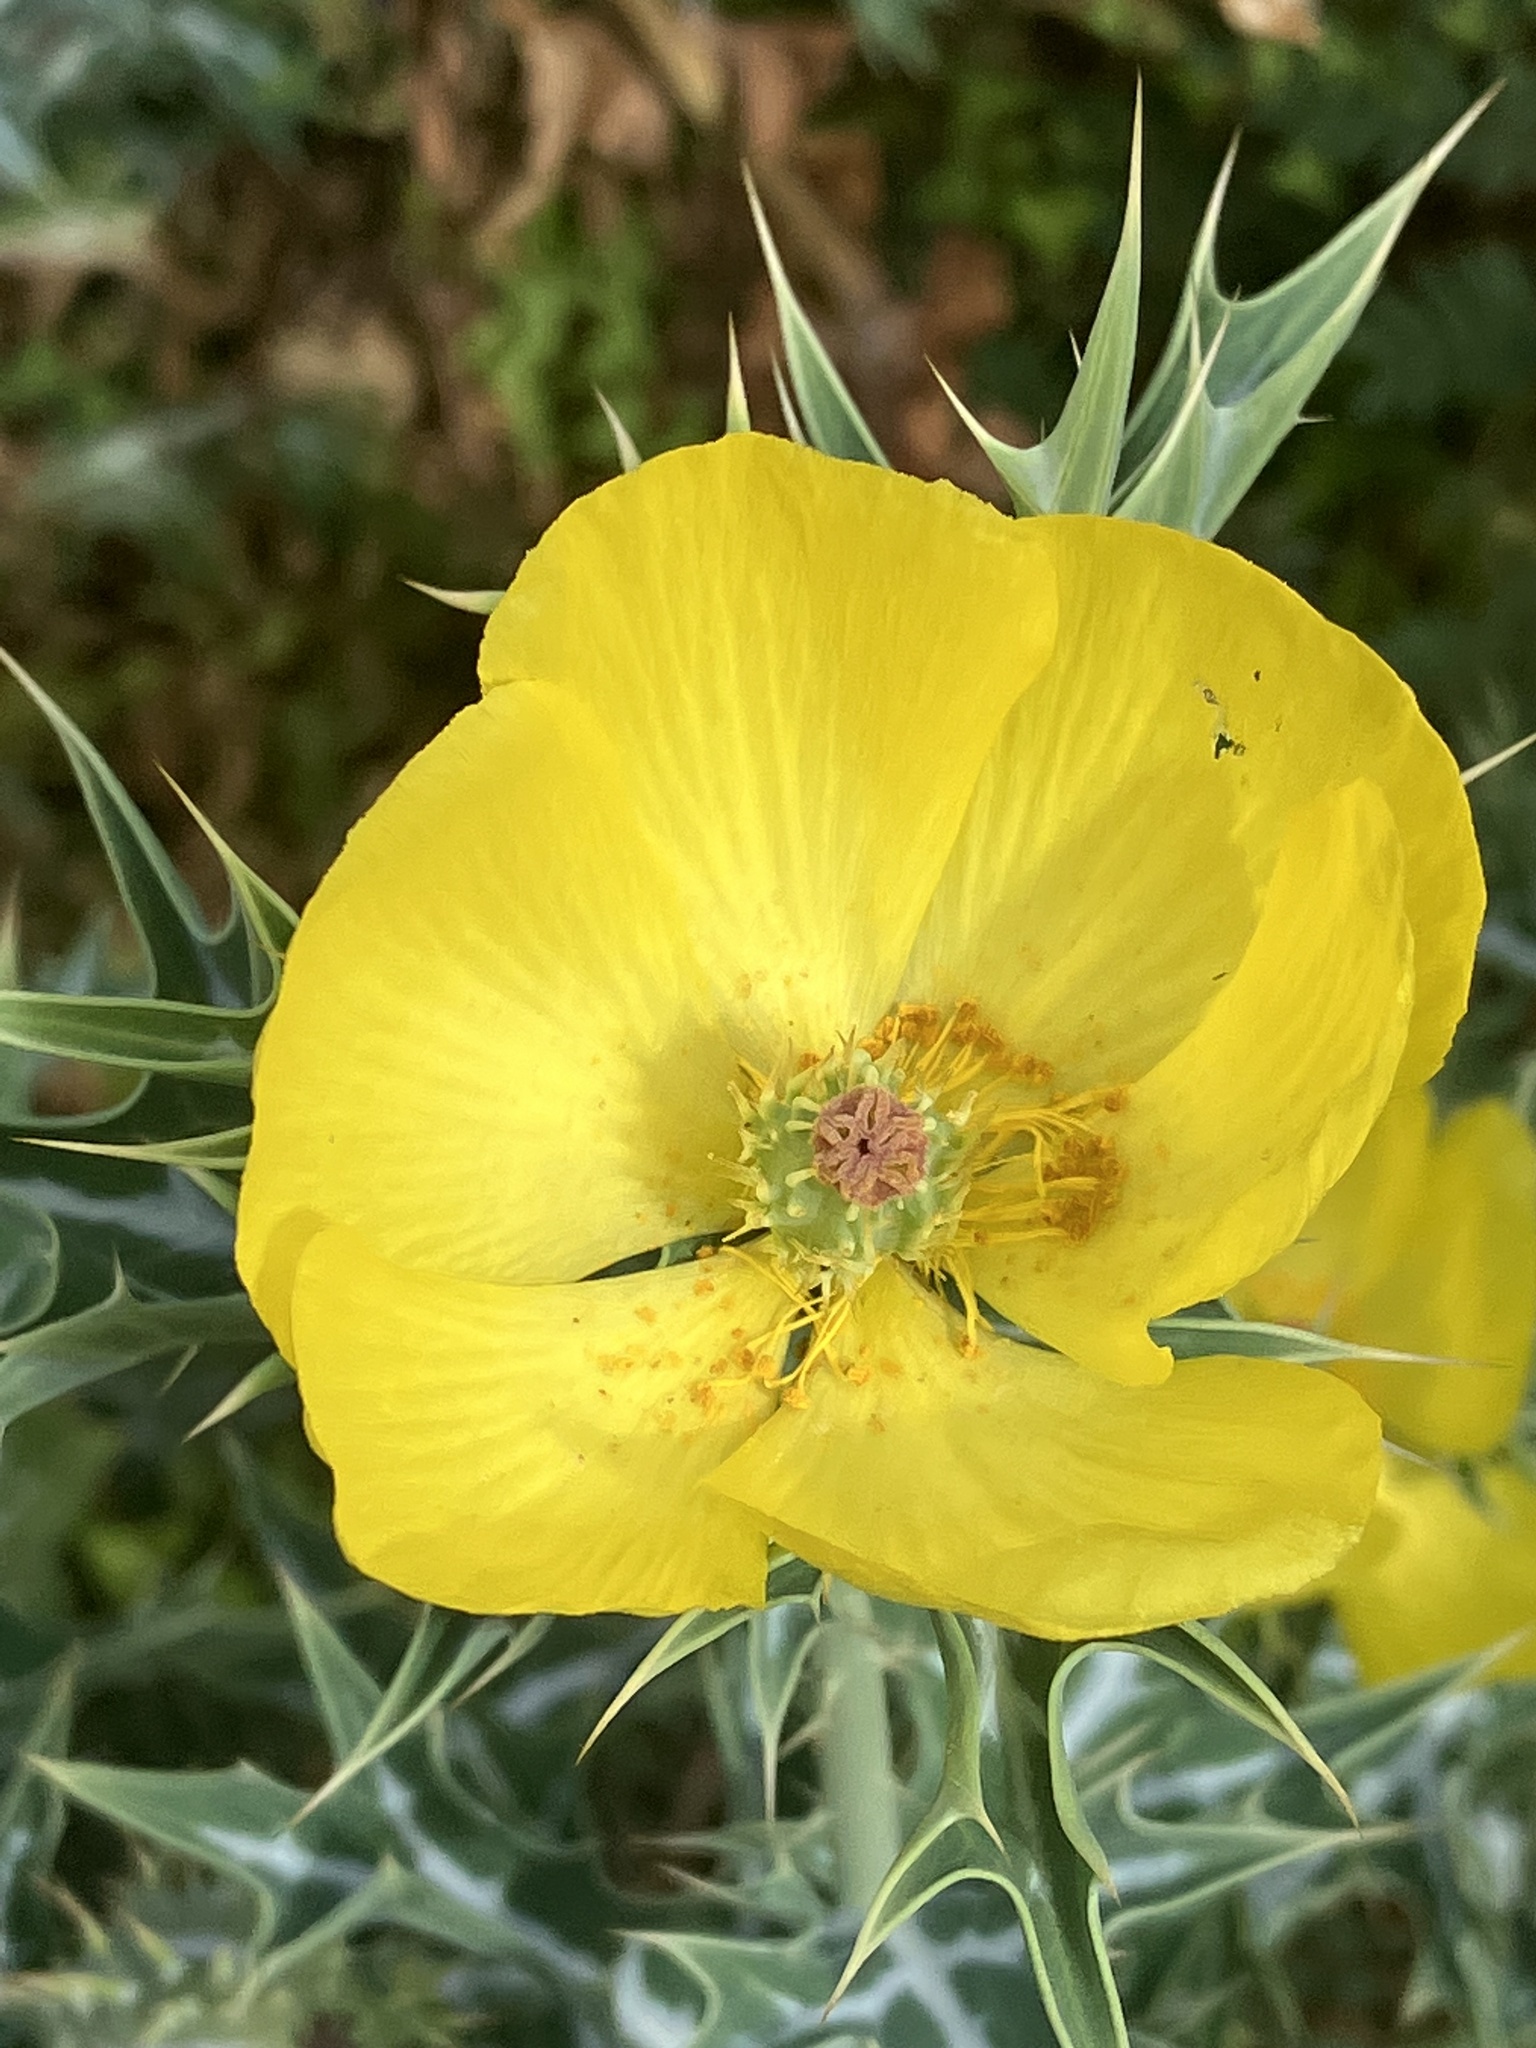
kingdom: Plantae
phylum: Tracheophyta
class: Magnoliopsida
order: Ranunculales
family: Papaveraceae
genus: Argemone
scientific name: Argemone mexicana
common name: Mexican poppy
